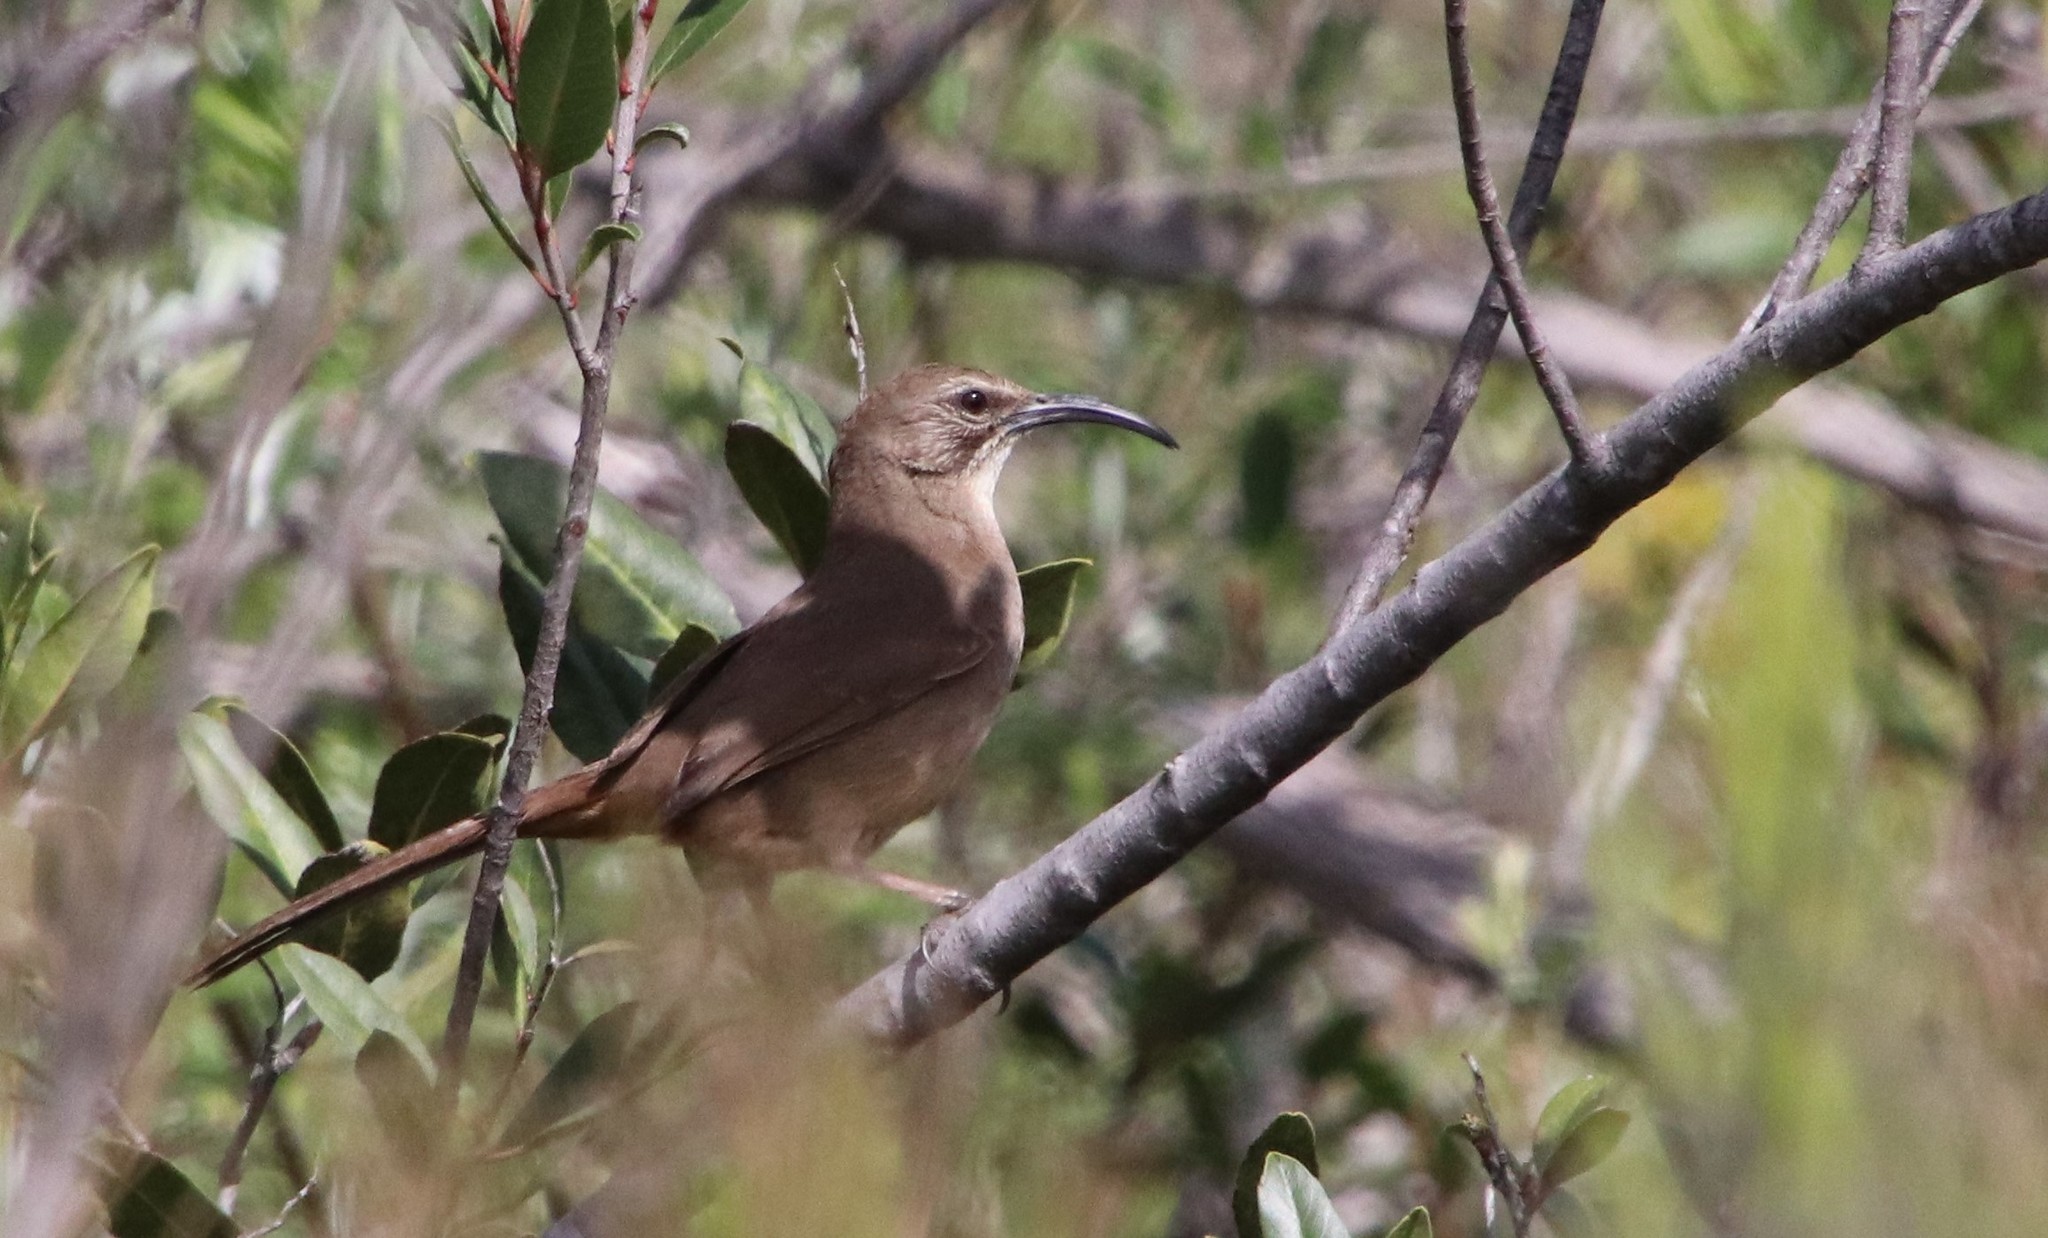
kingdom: Animalia
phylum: Chordata
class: Aves
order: Passeriformes
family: Mimidae
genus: Toxostoma
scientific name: Toxostoma redivivum
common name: California thrasher
